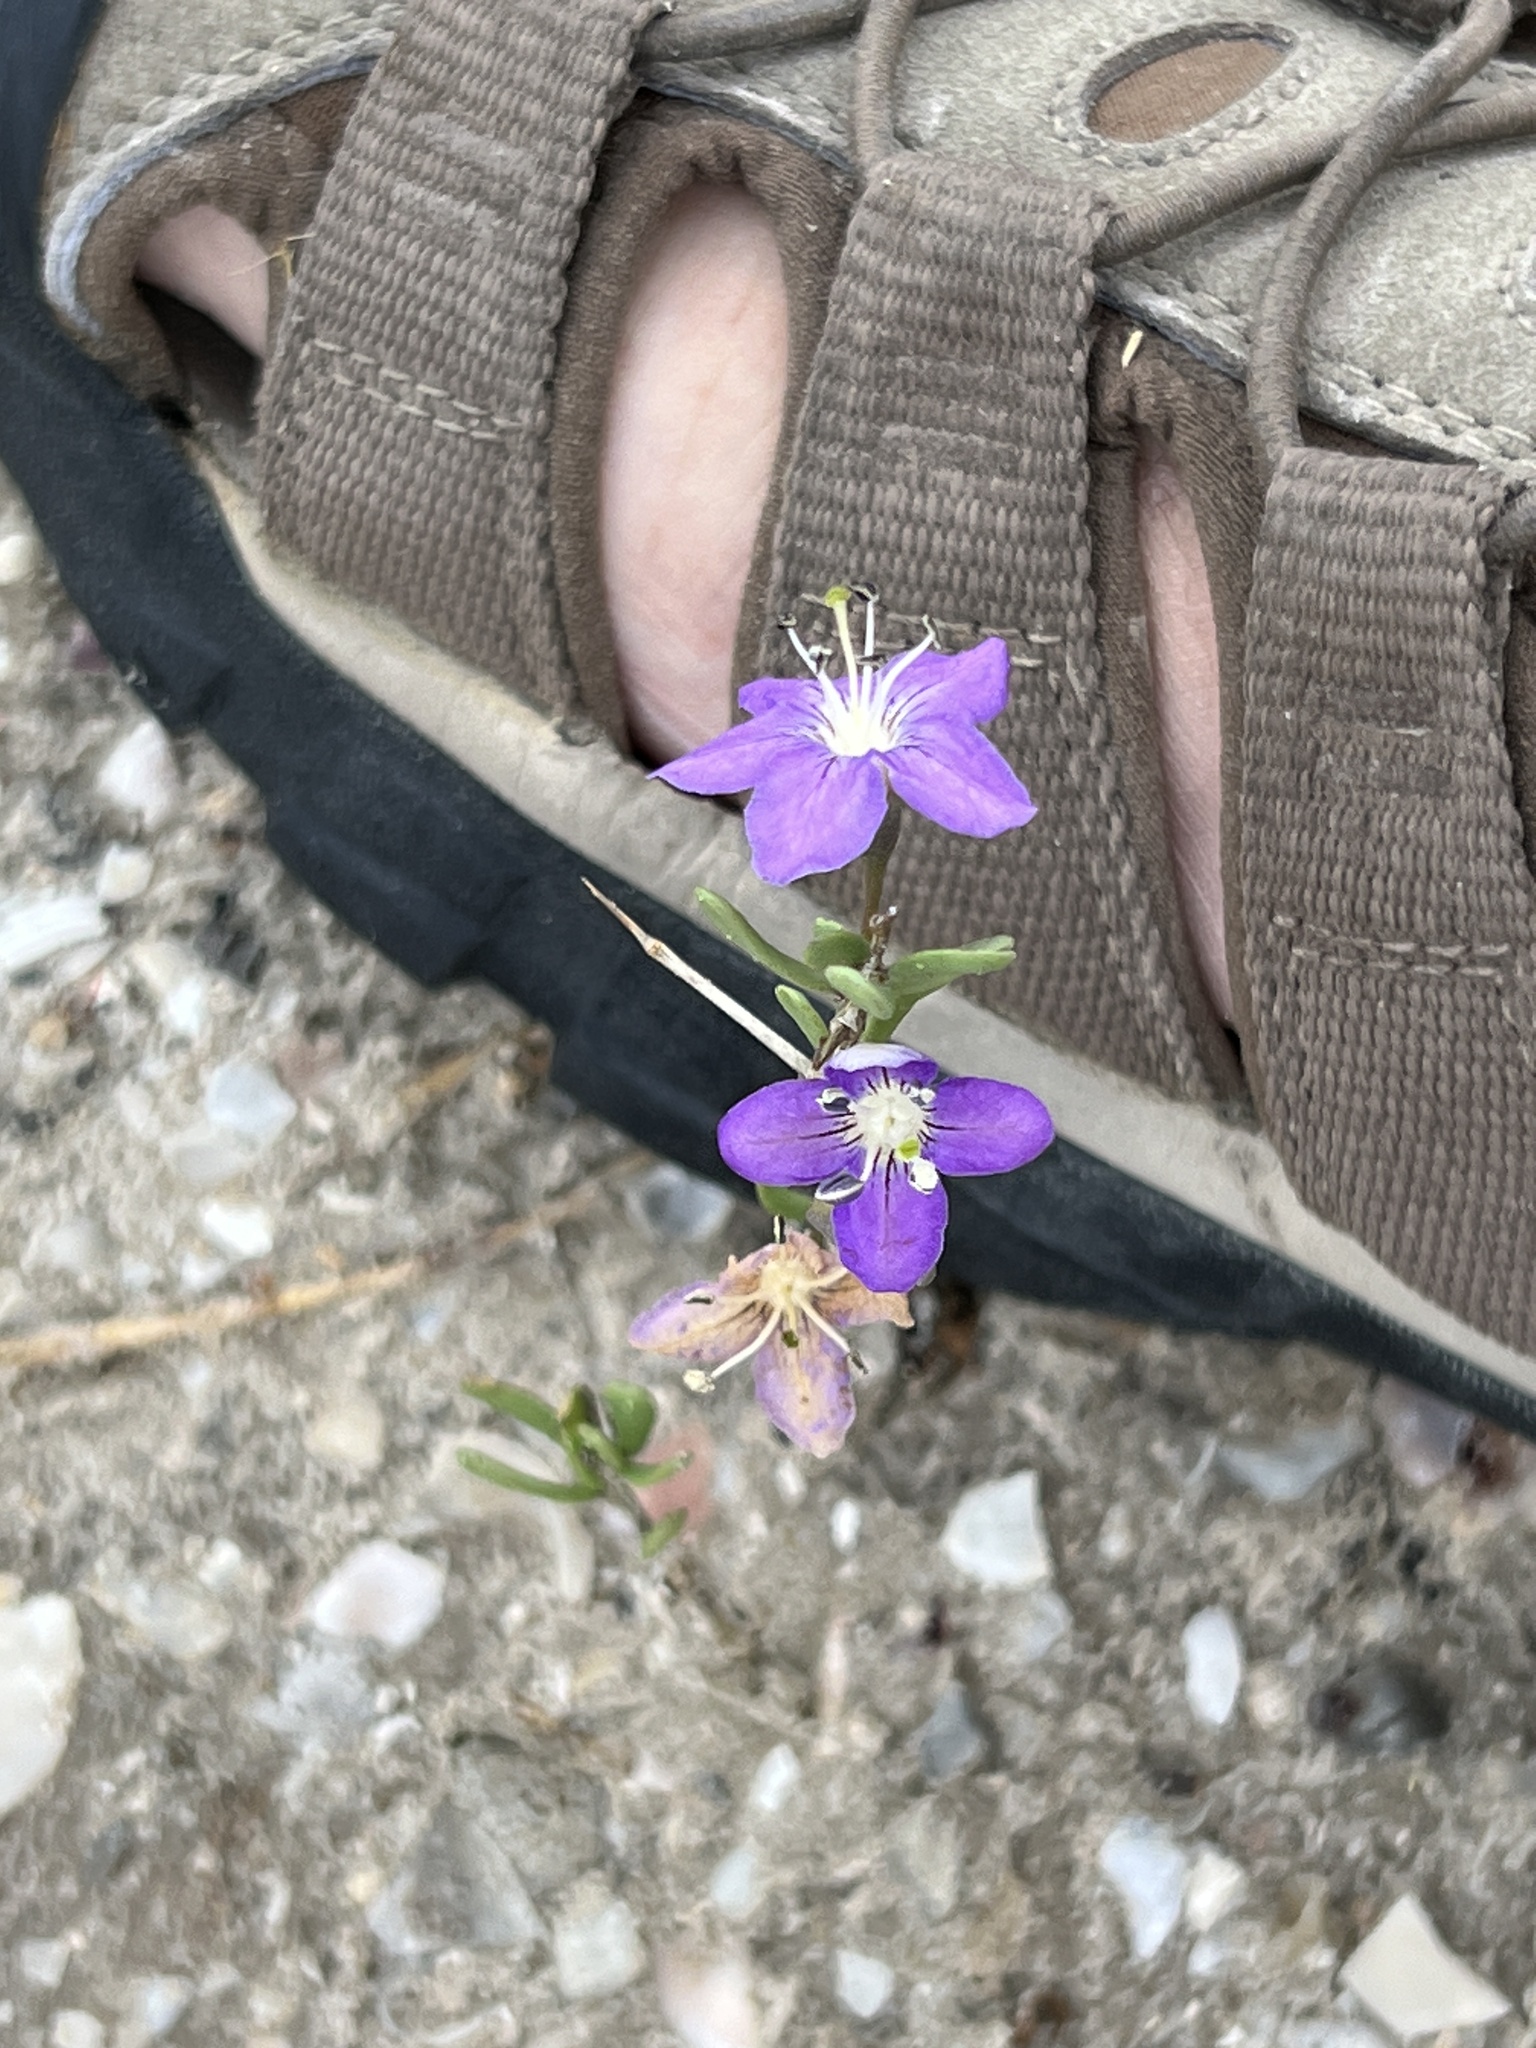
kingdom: Plantae
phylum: Tracheophyta
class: Magnoliopsida
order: Solanales
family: Solanaceae
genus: Lycium
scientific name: Lycium carolinianum
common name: Christmasberry
